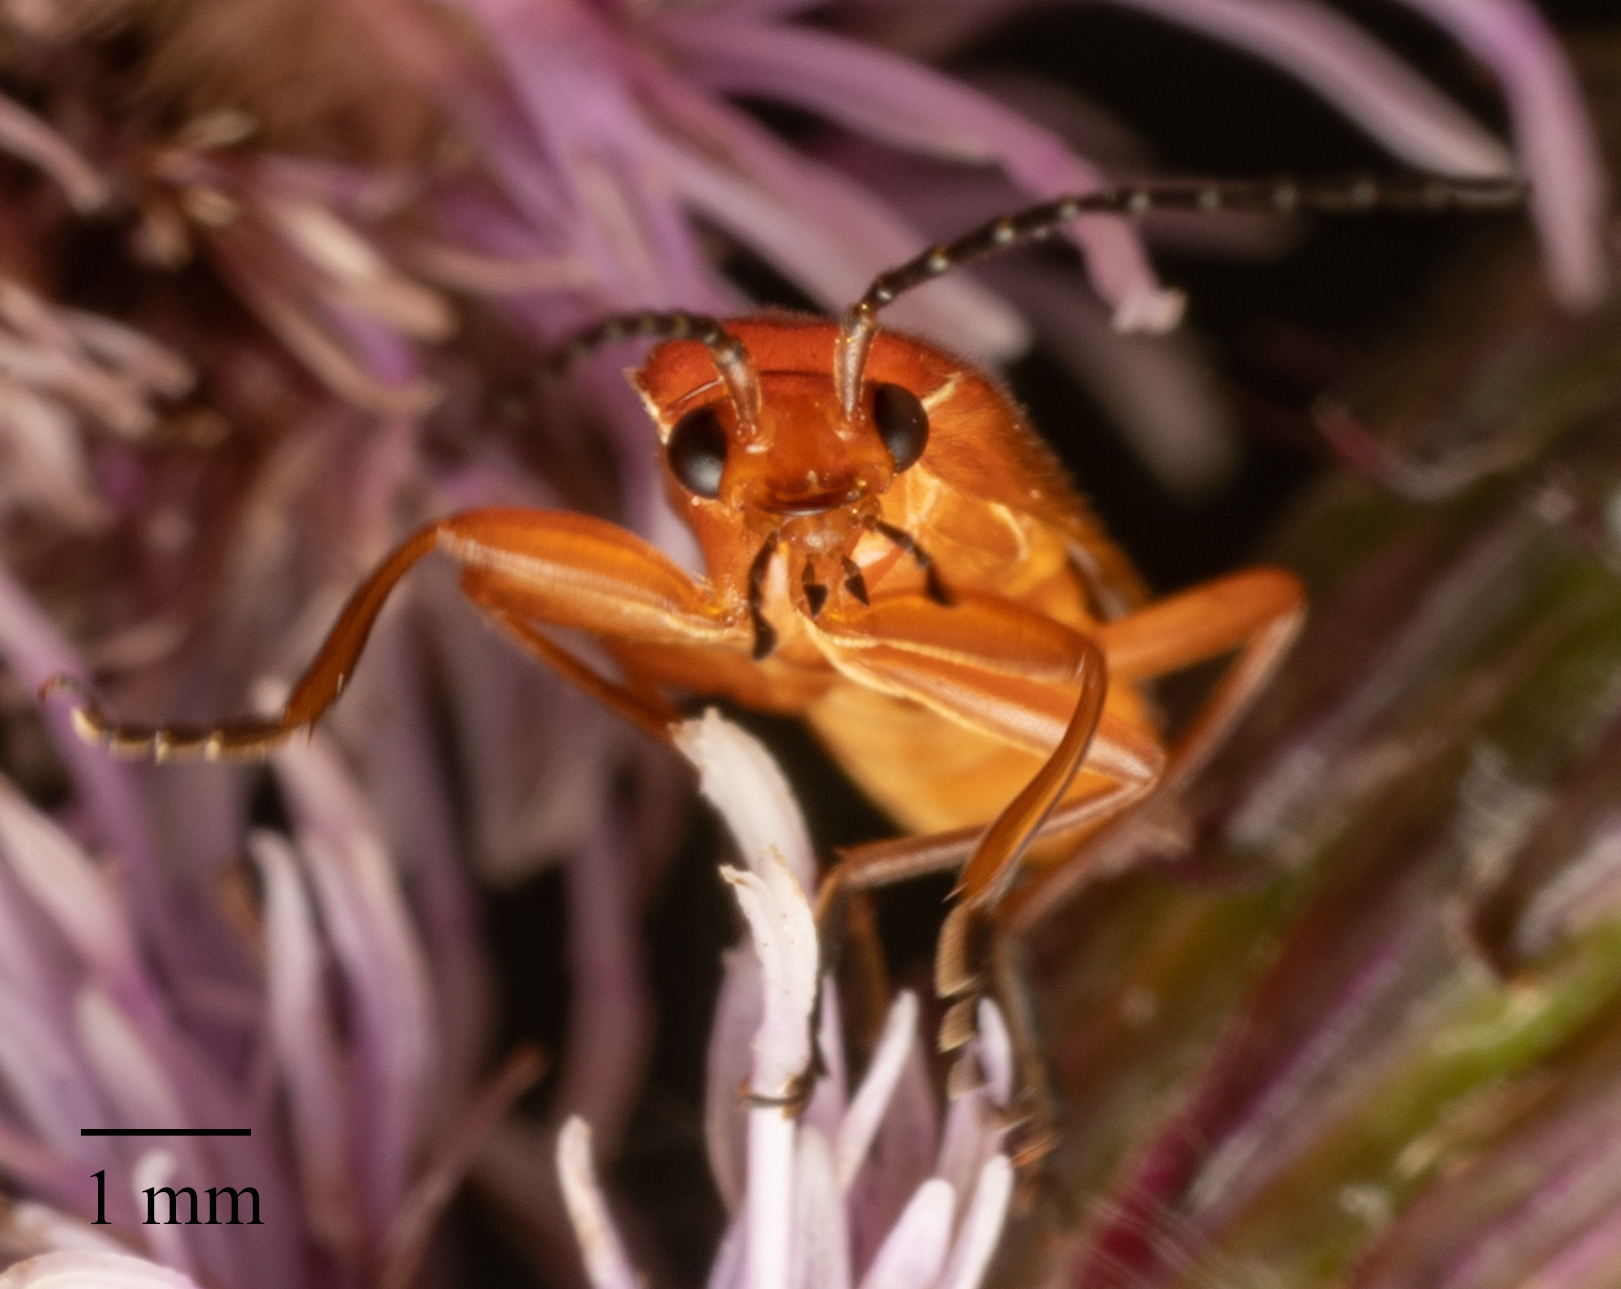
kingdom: Animalia
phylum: Arthropoda
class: Insecta
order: Coleoptera
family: Cantharidae
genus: Rhagonycha
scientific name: Rhagonycha fulva
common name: Common red soldier beetle
